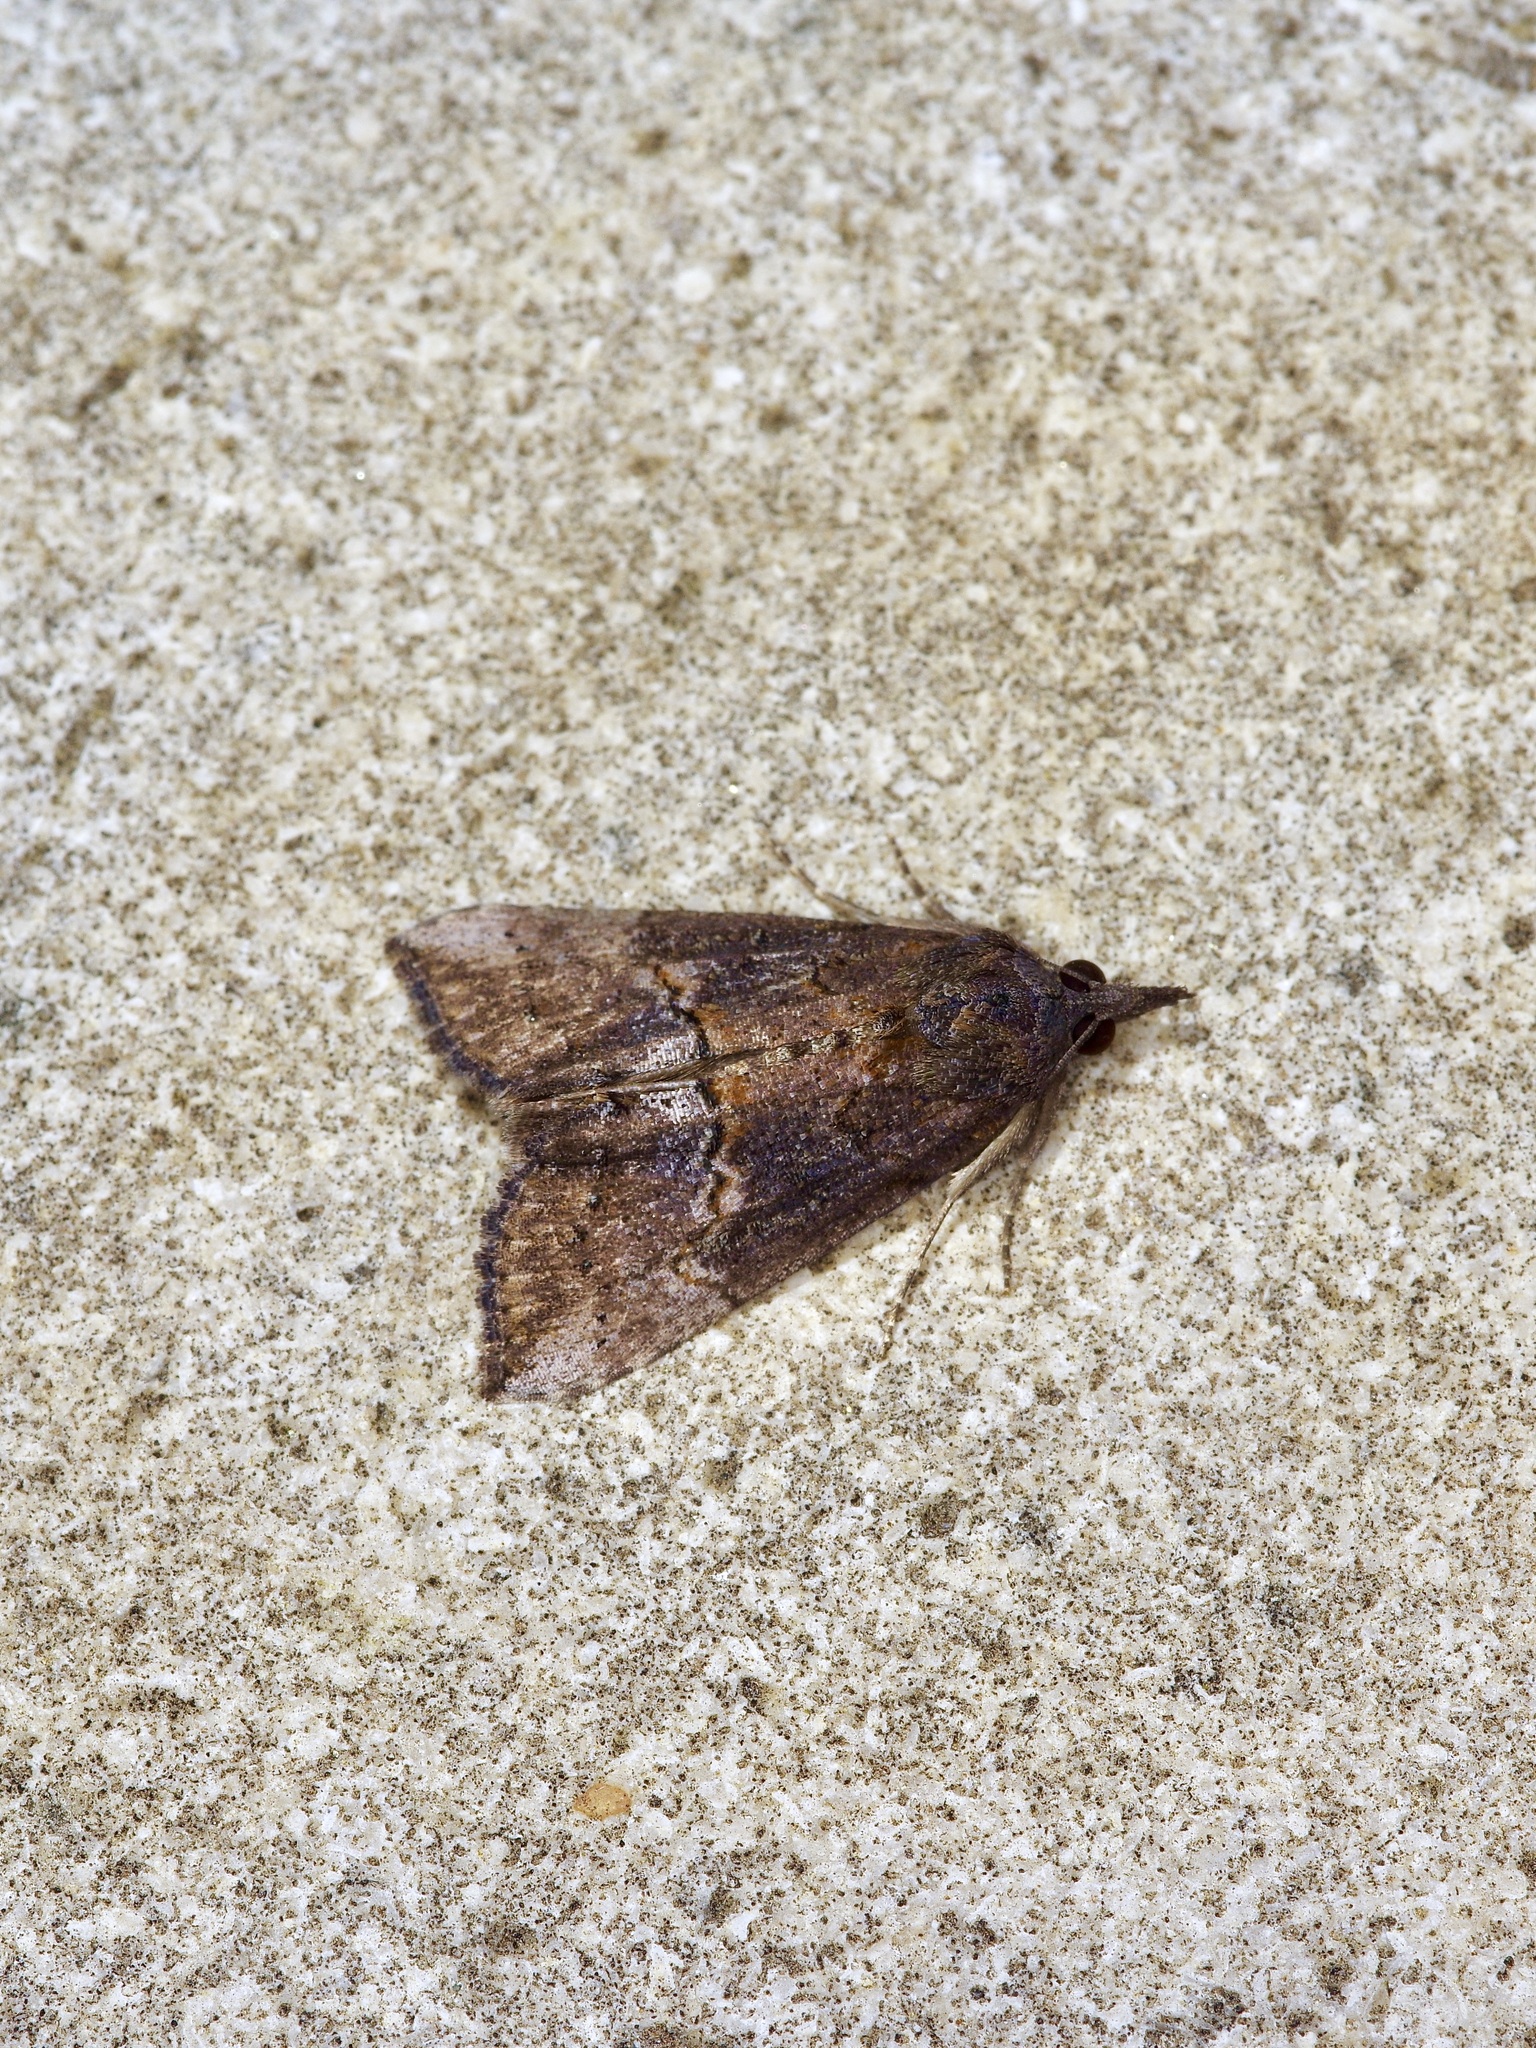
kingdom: Animalia
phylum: Arthropoda
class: Insecta
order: Lepidoptera
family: Erebidae
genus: Hypena
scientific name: Hypena scabra
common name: Green cloverworm
